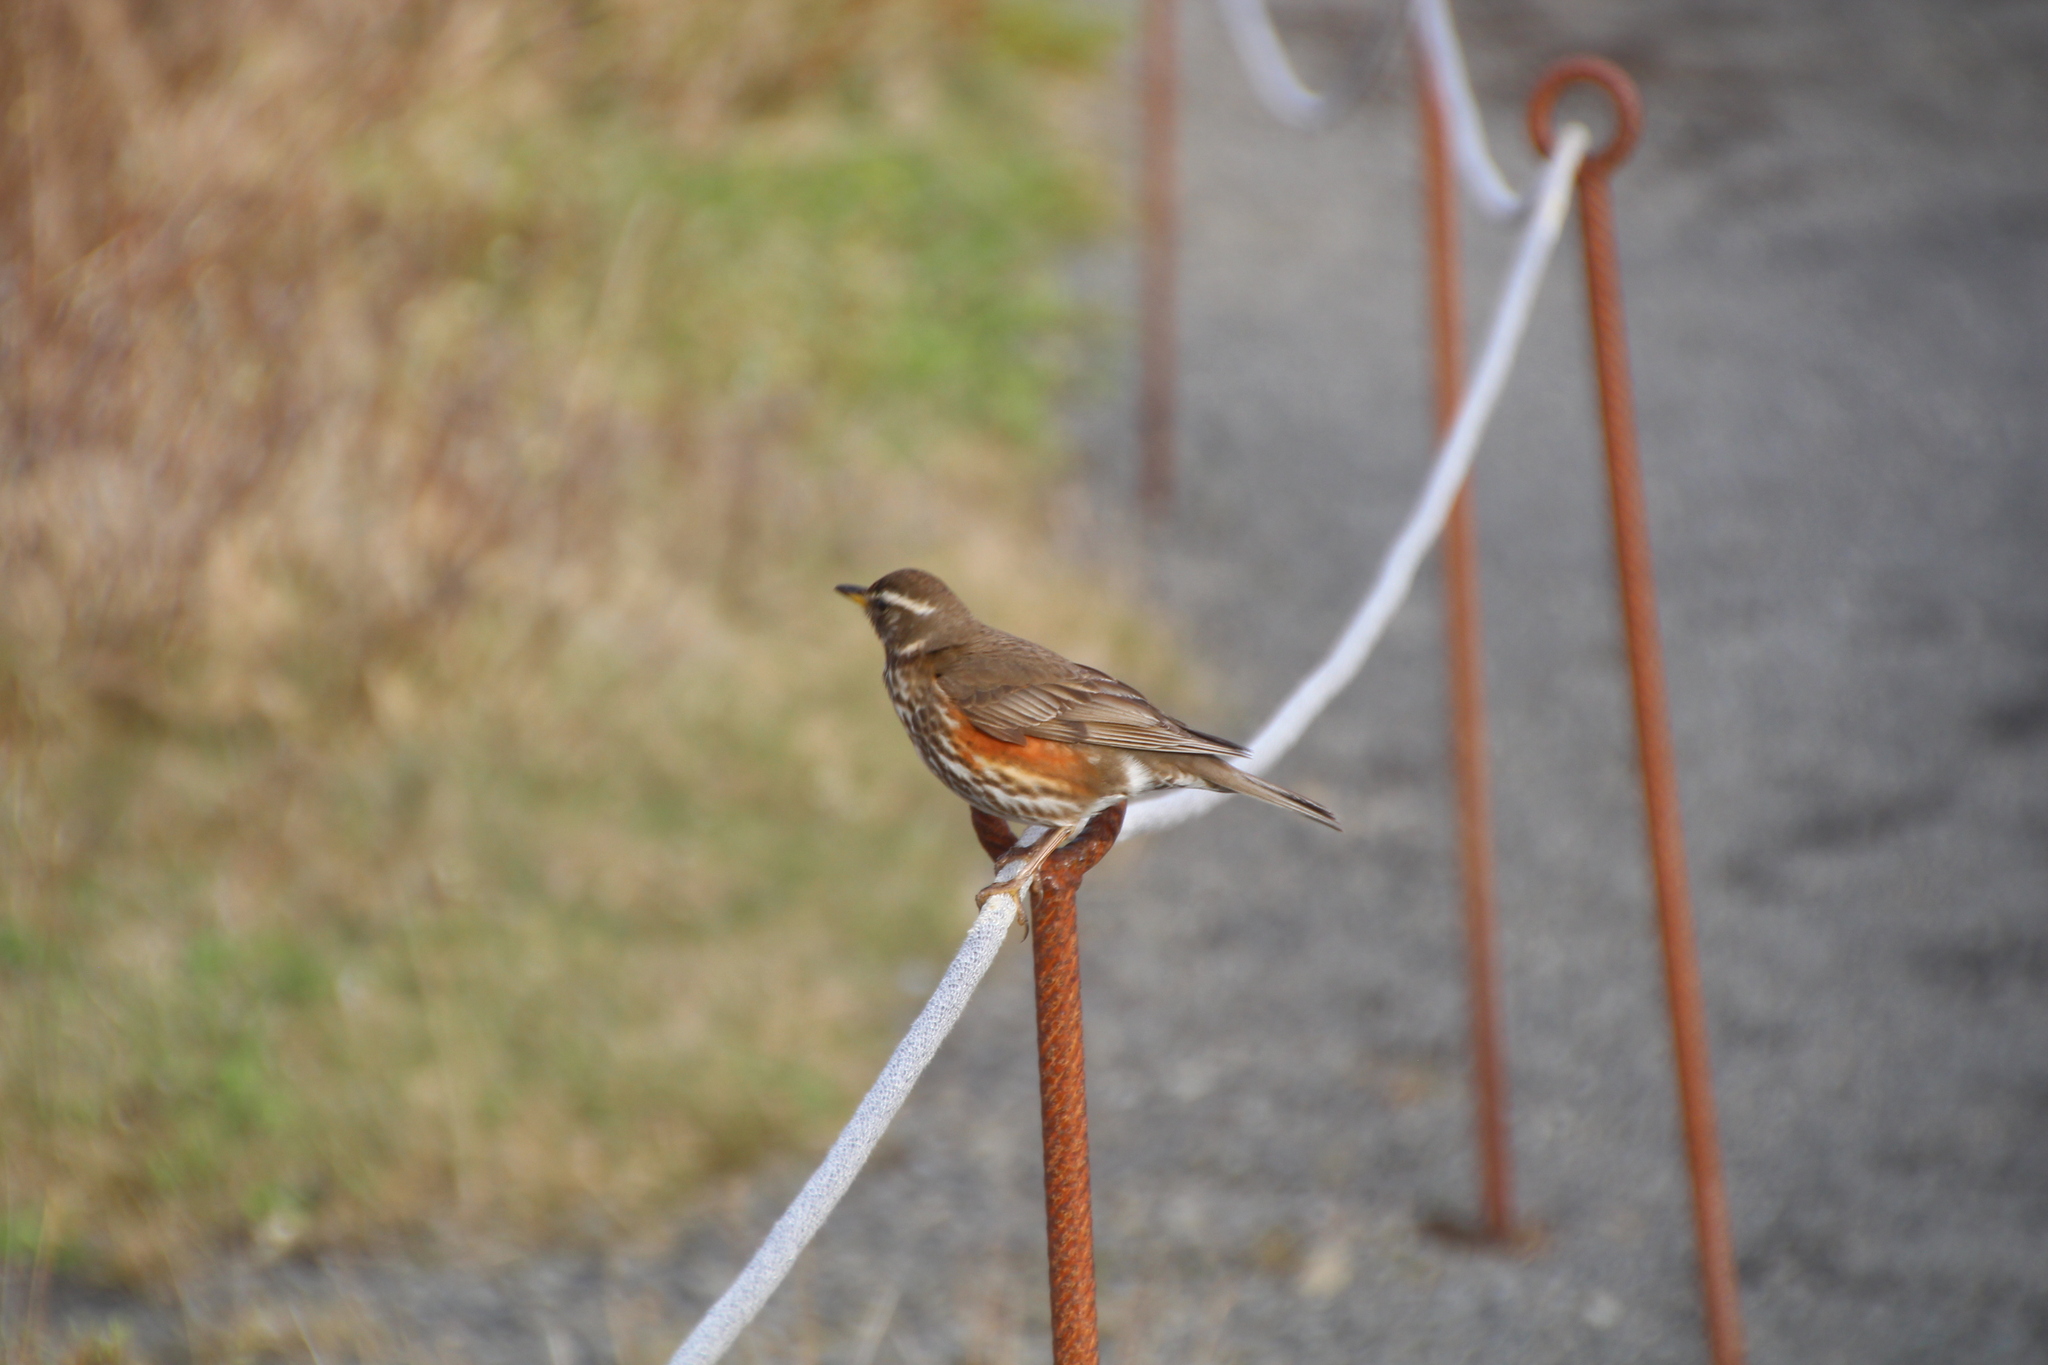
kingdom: Animalia
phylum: Chordata
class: Aves
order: Passeriformes
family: Turdidae
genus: Turdus
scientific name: Turdus iliacus
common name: Redwing
